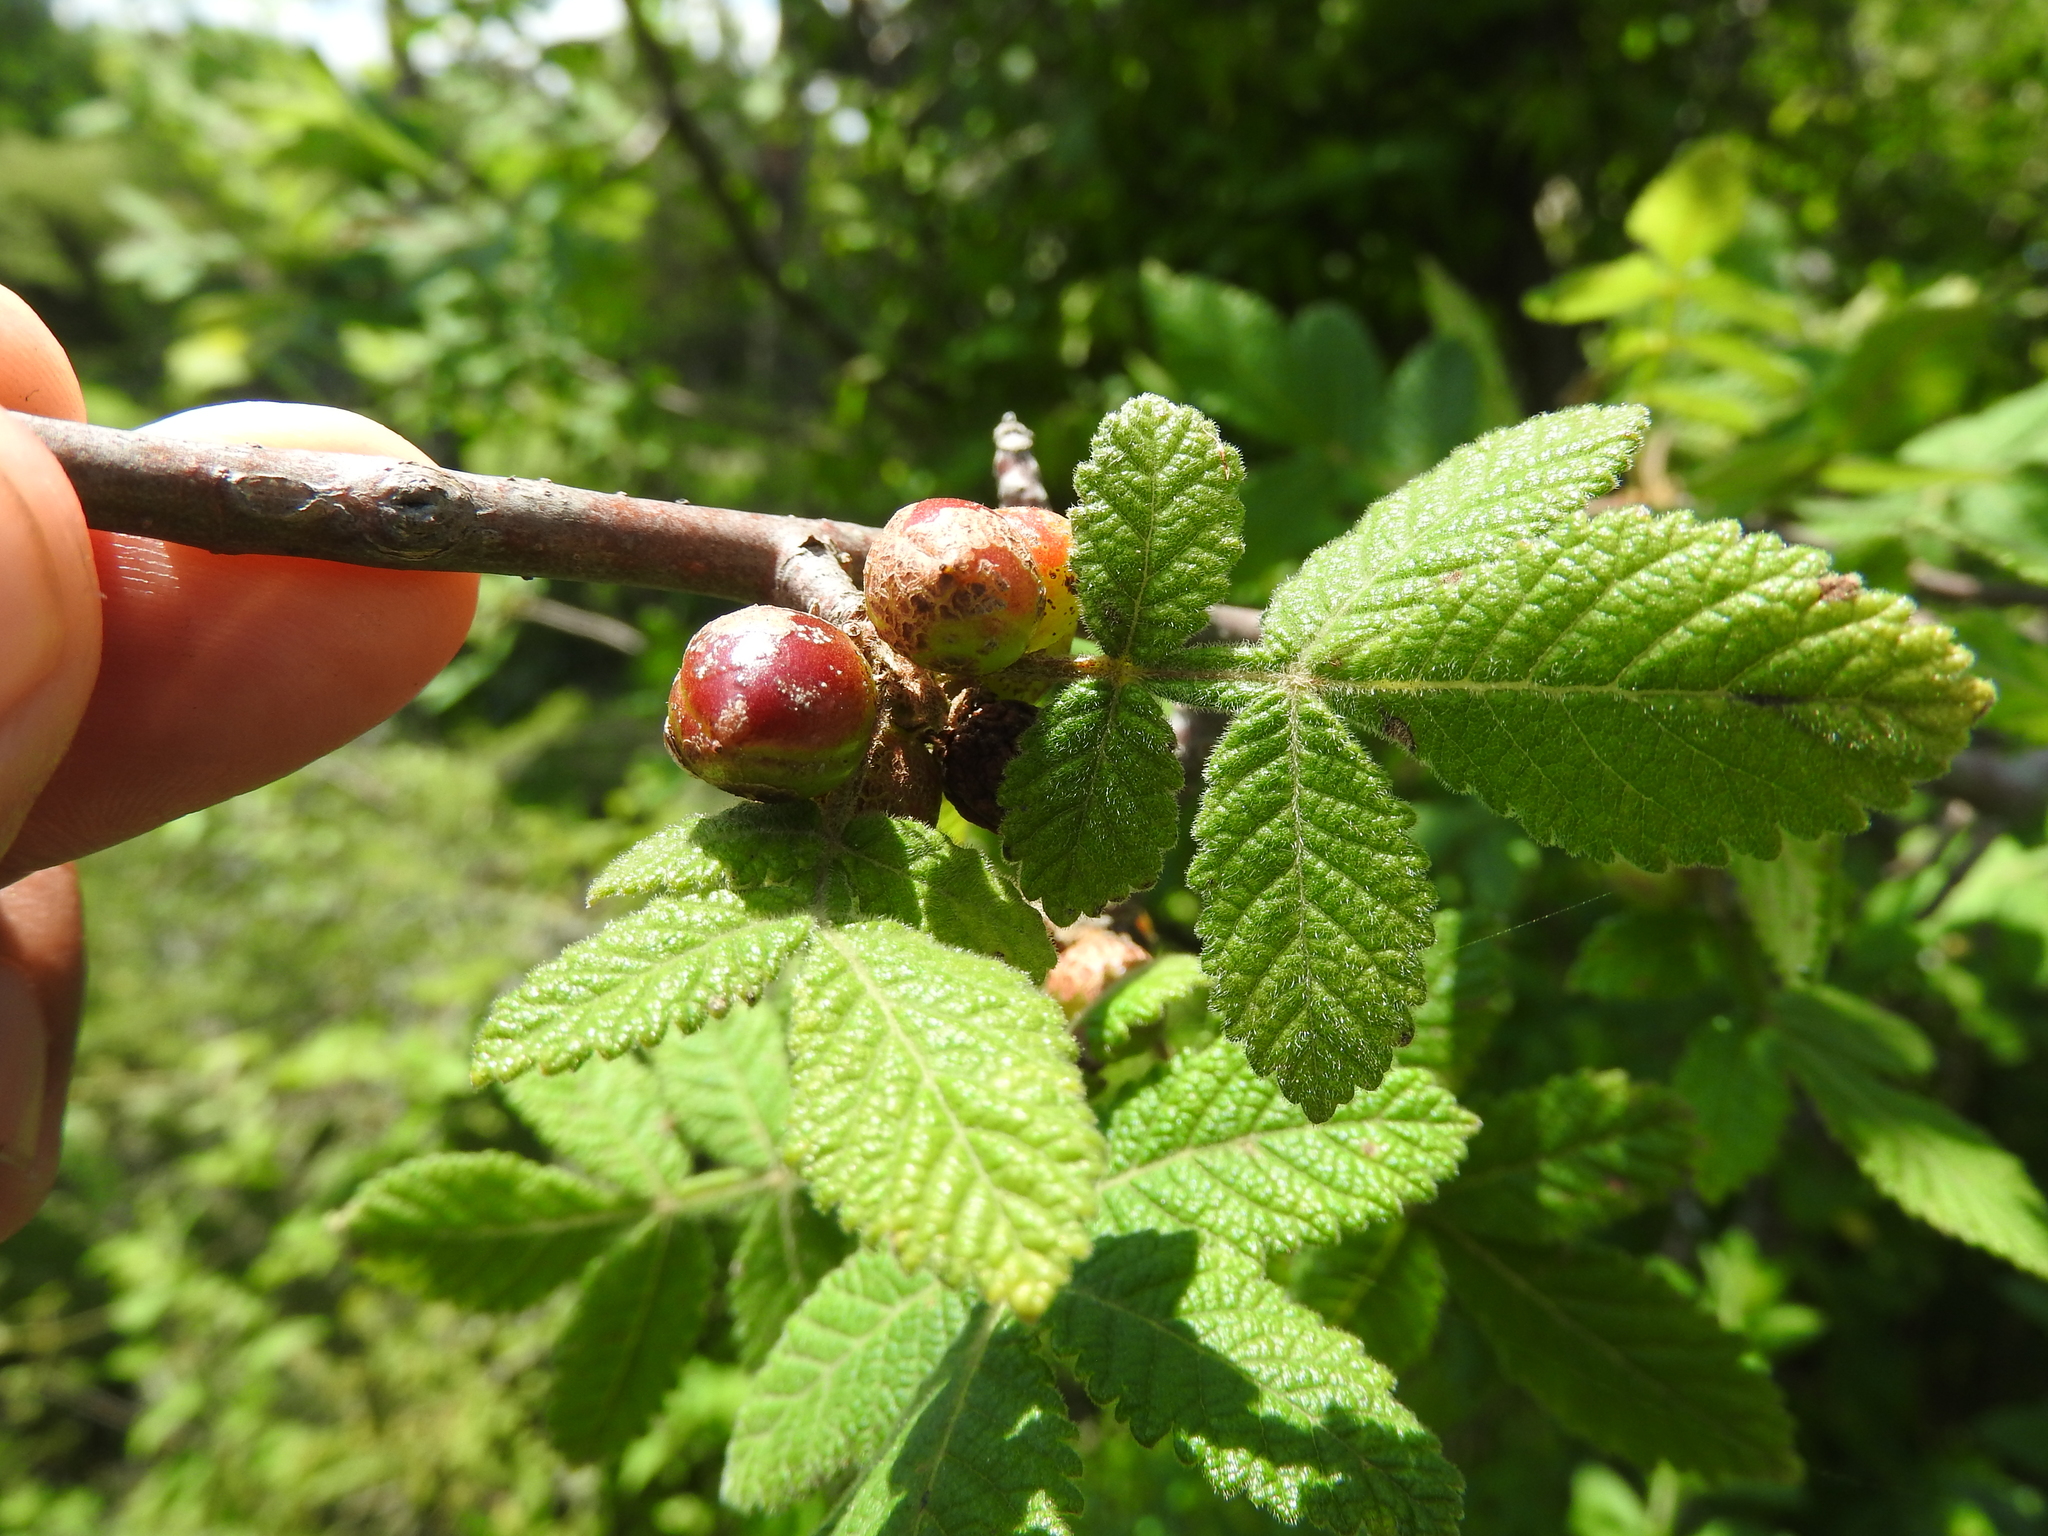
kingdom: Plantae
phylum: Tracheophyta
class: Magnoliopsida
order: Sapindales
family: Burseraceae
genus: Bursera
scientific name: Bursera palmeri
